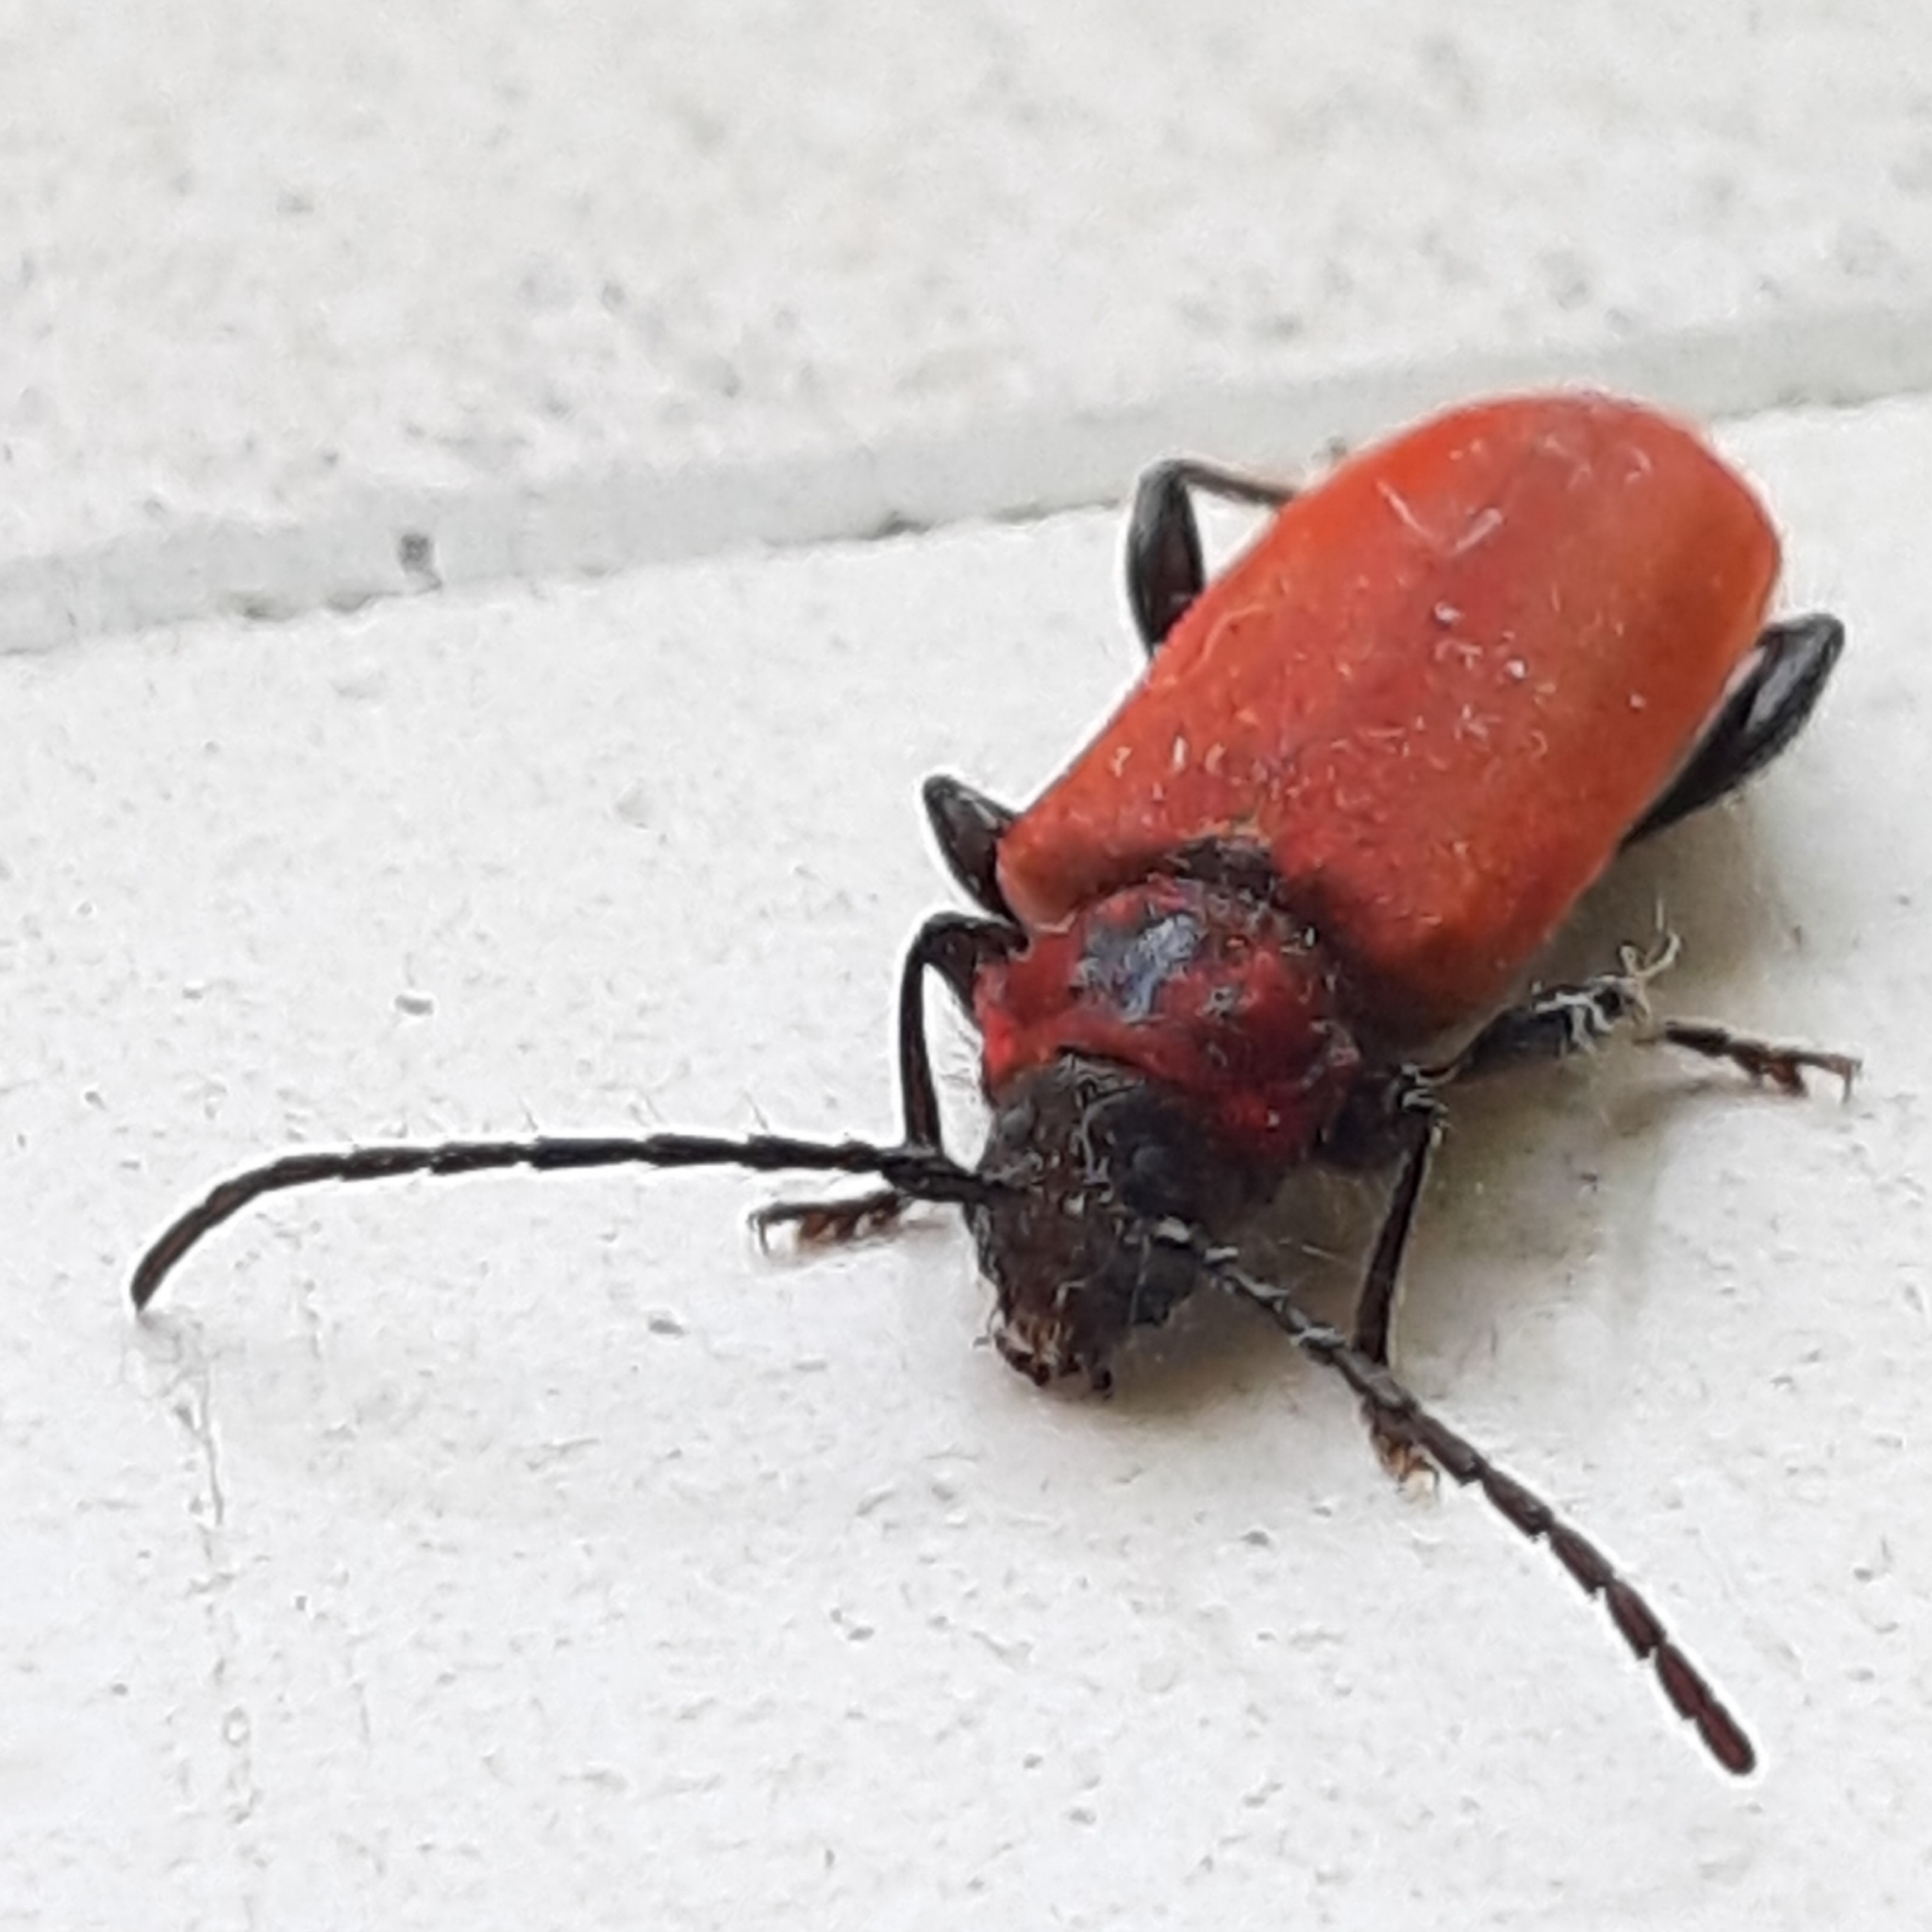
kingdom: Animalia
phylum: Arthropoda
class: Insecta
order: Coleoptera
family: Cerambycidae
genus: Pyrrhidium
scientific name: Pyrrhidium sanguineum
